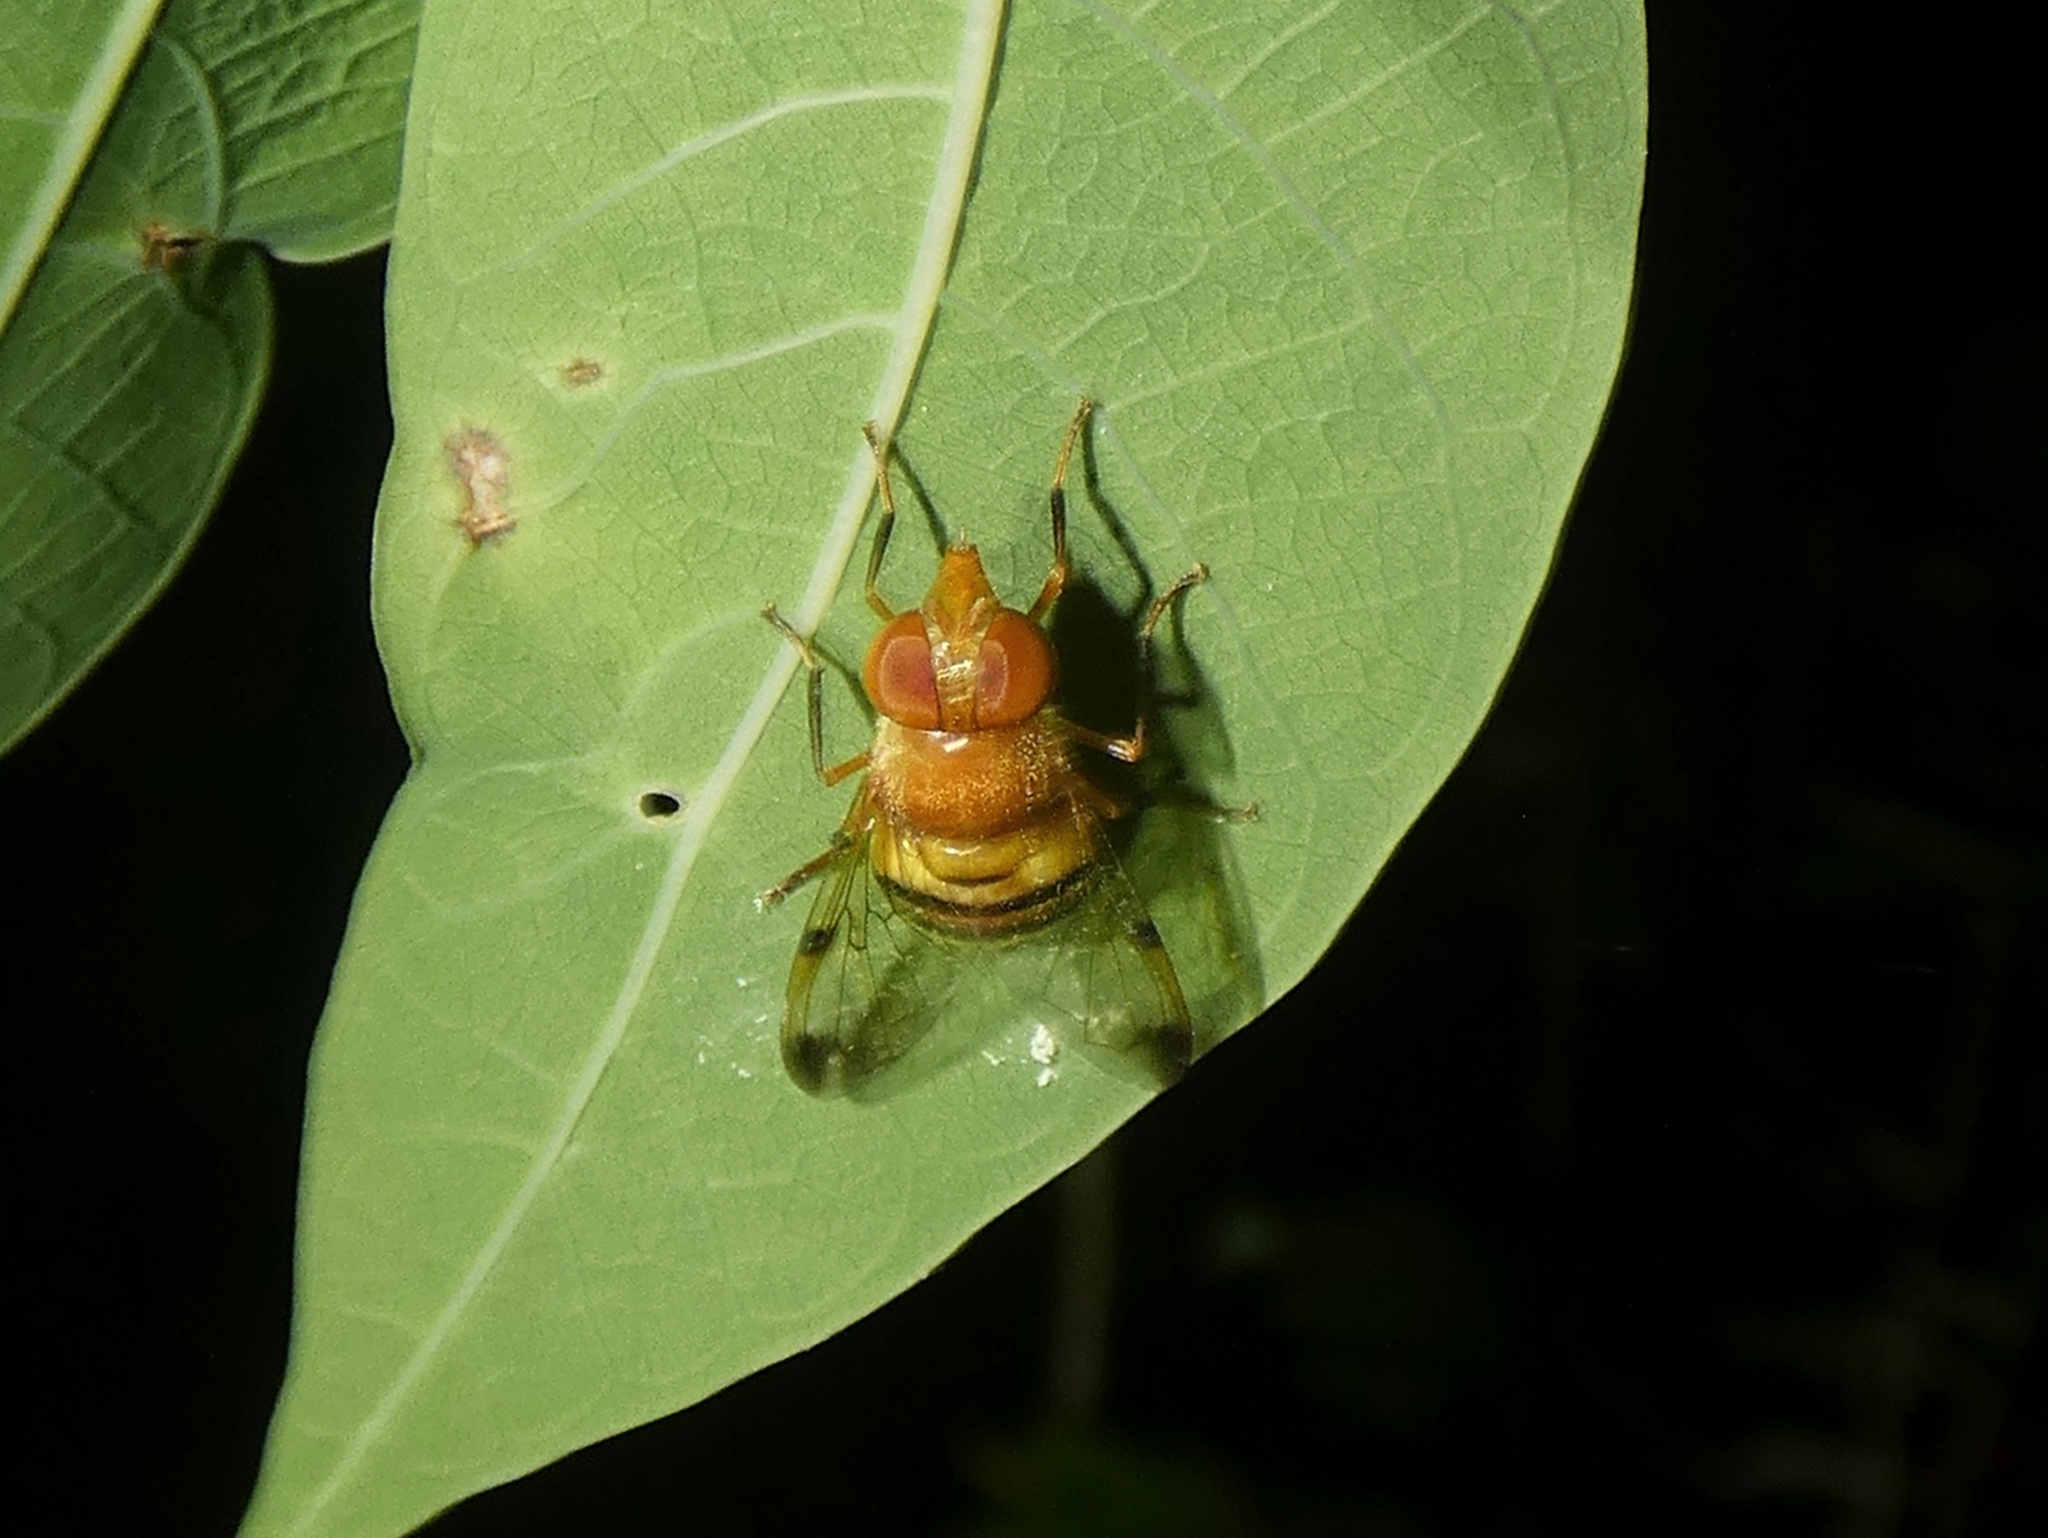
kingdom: Animalia
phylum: Arthropoda
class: Insecta
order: Diptera
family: Syrphidae
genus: Copestylum
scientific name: Copestylum tympanitis
